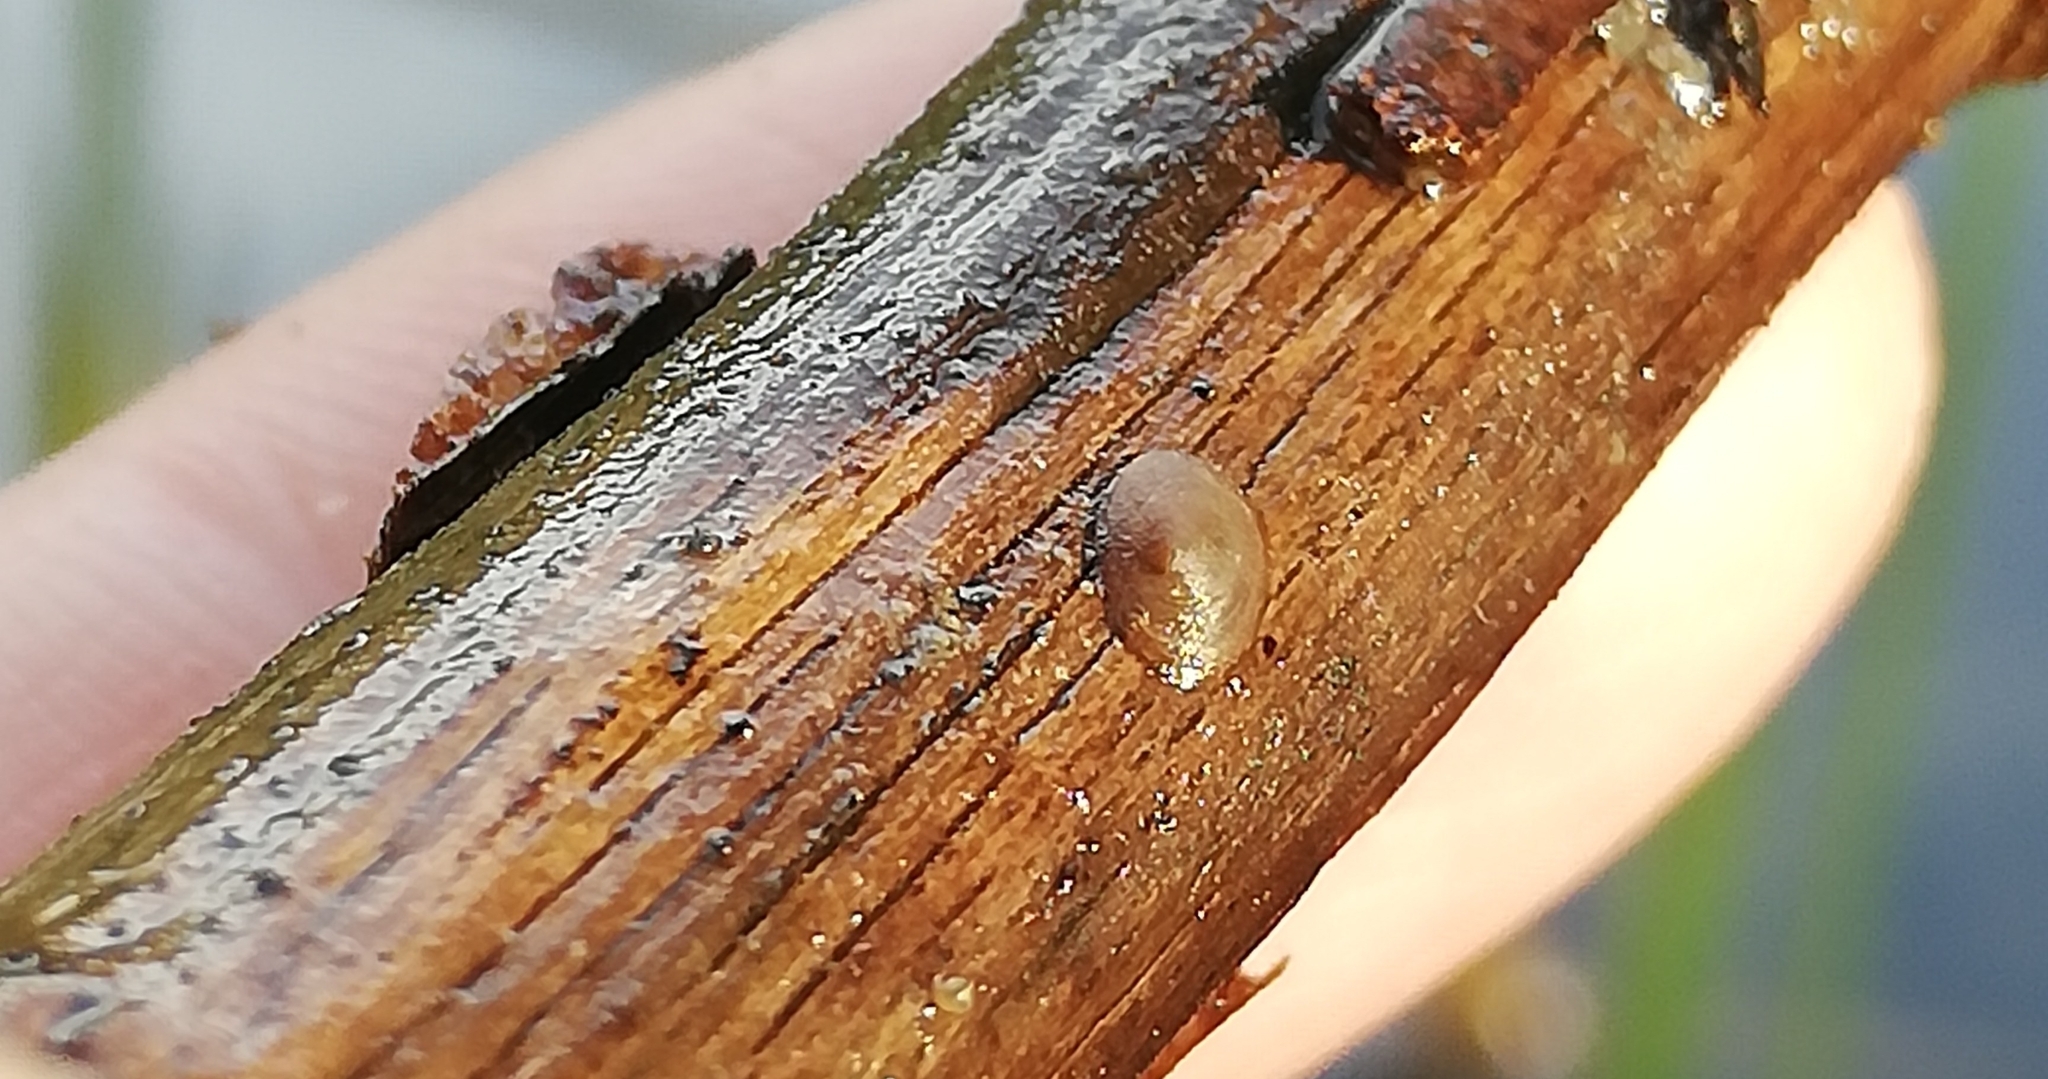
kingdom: Animalia
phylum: Mollusca
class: Gastropoda
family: Acroloxidae
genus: Acroloxus
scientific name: Acroloxus lacustris
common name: Lake limpet
